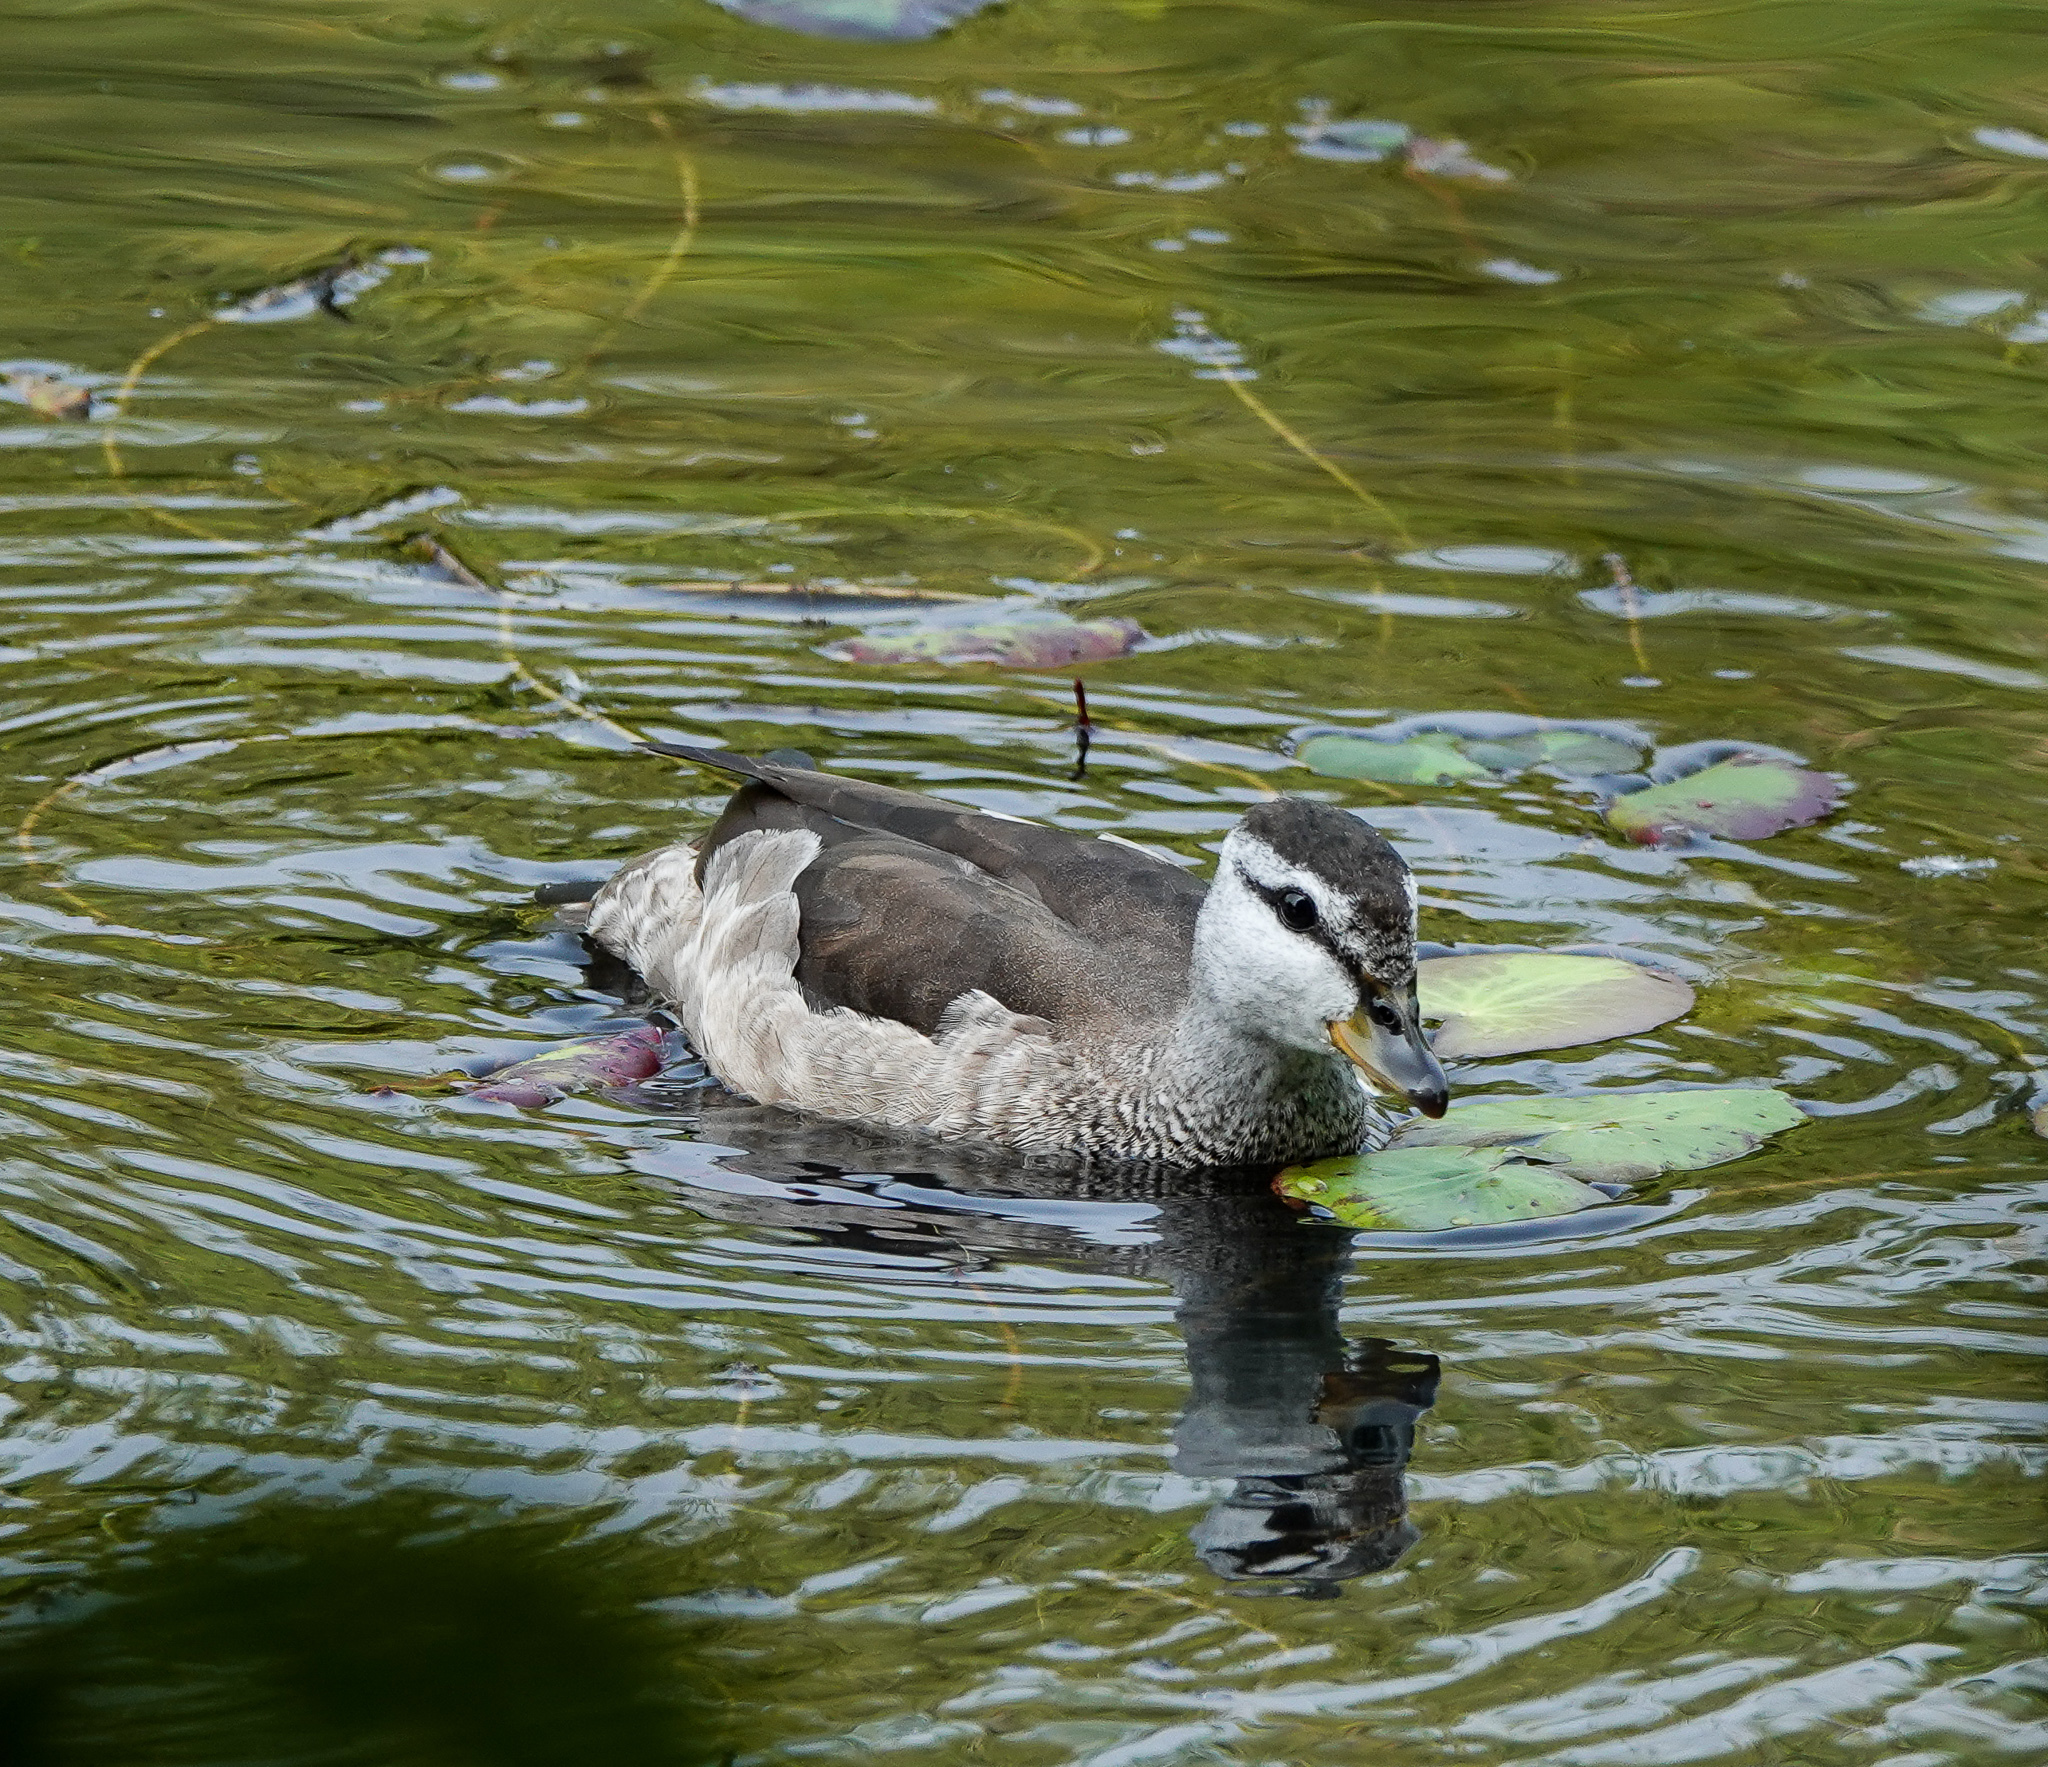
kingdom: Animalia
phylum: Chordata
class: Aves
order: Anseriformes
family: Anatidae
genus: Nettapus
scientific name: Nettapus coromandelianus
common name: Cotton pygmy-goose
